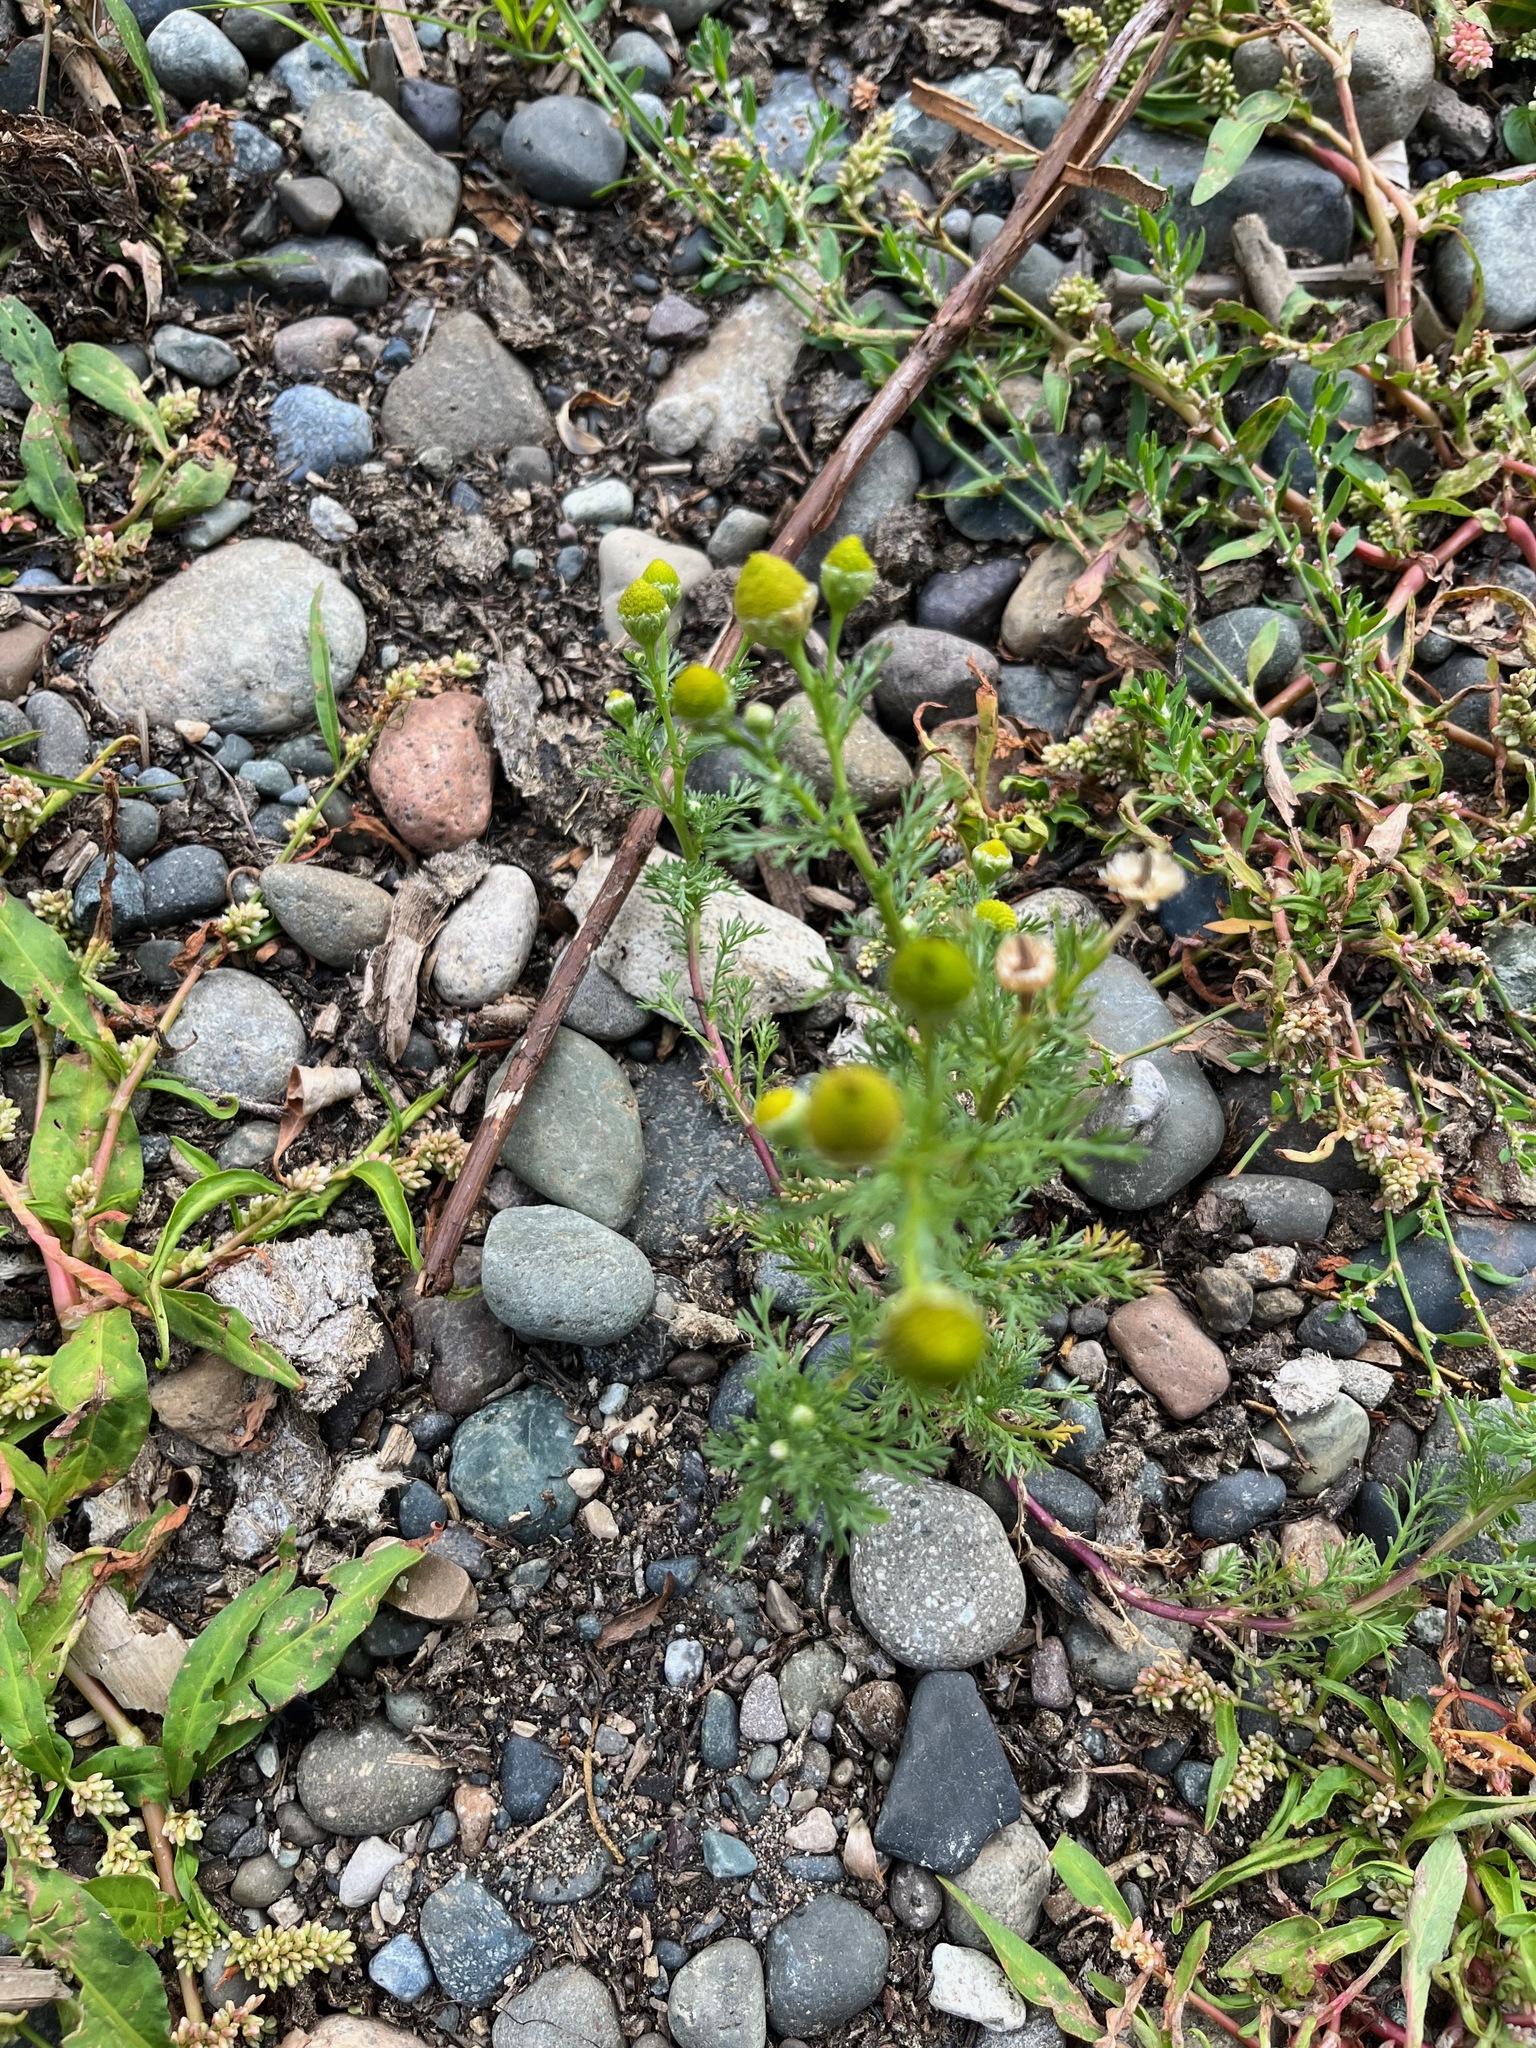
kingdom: Plantae
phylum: Tracheophyta
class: Magnoliopsida
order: Asterales
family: Asteraceae
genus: Matricaria
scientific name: Matricaria discoidea
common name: Disc mayweed
